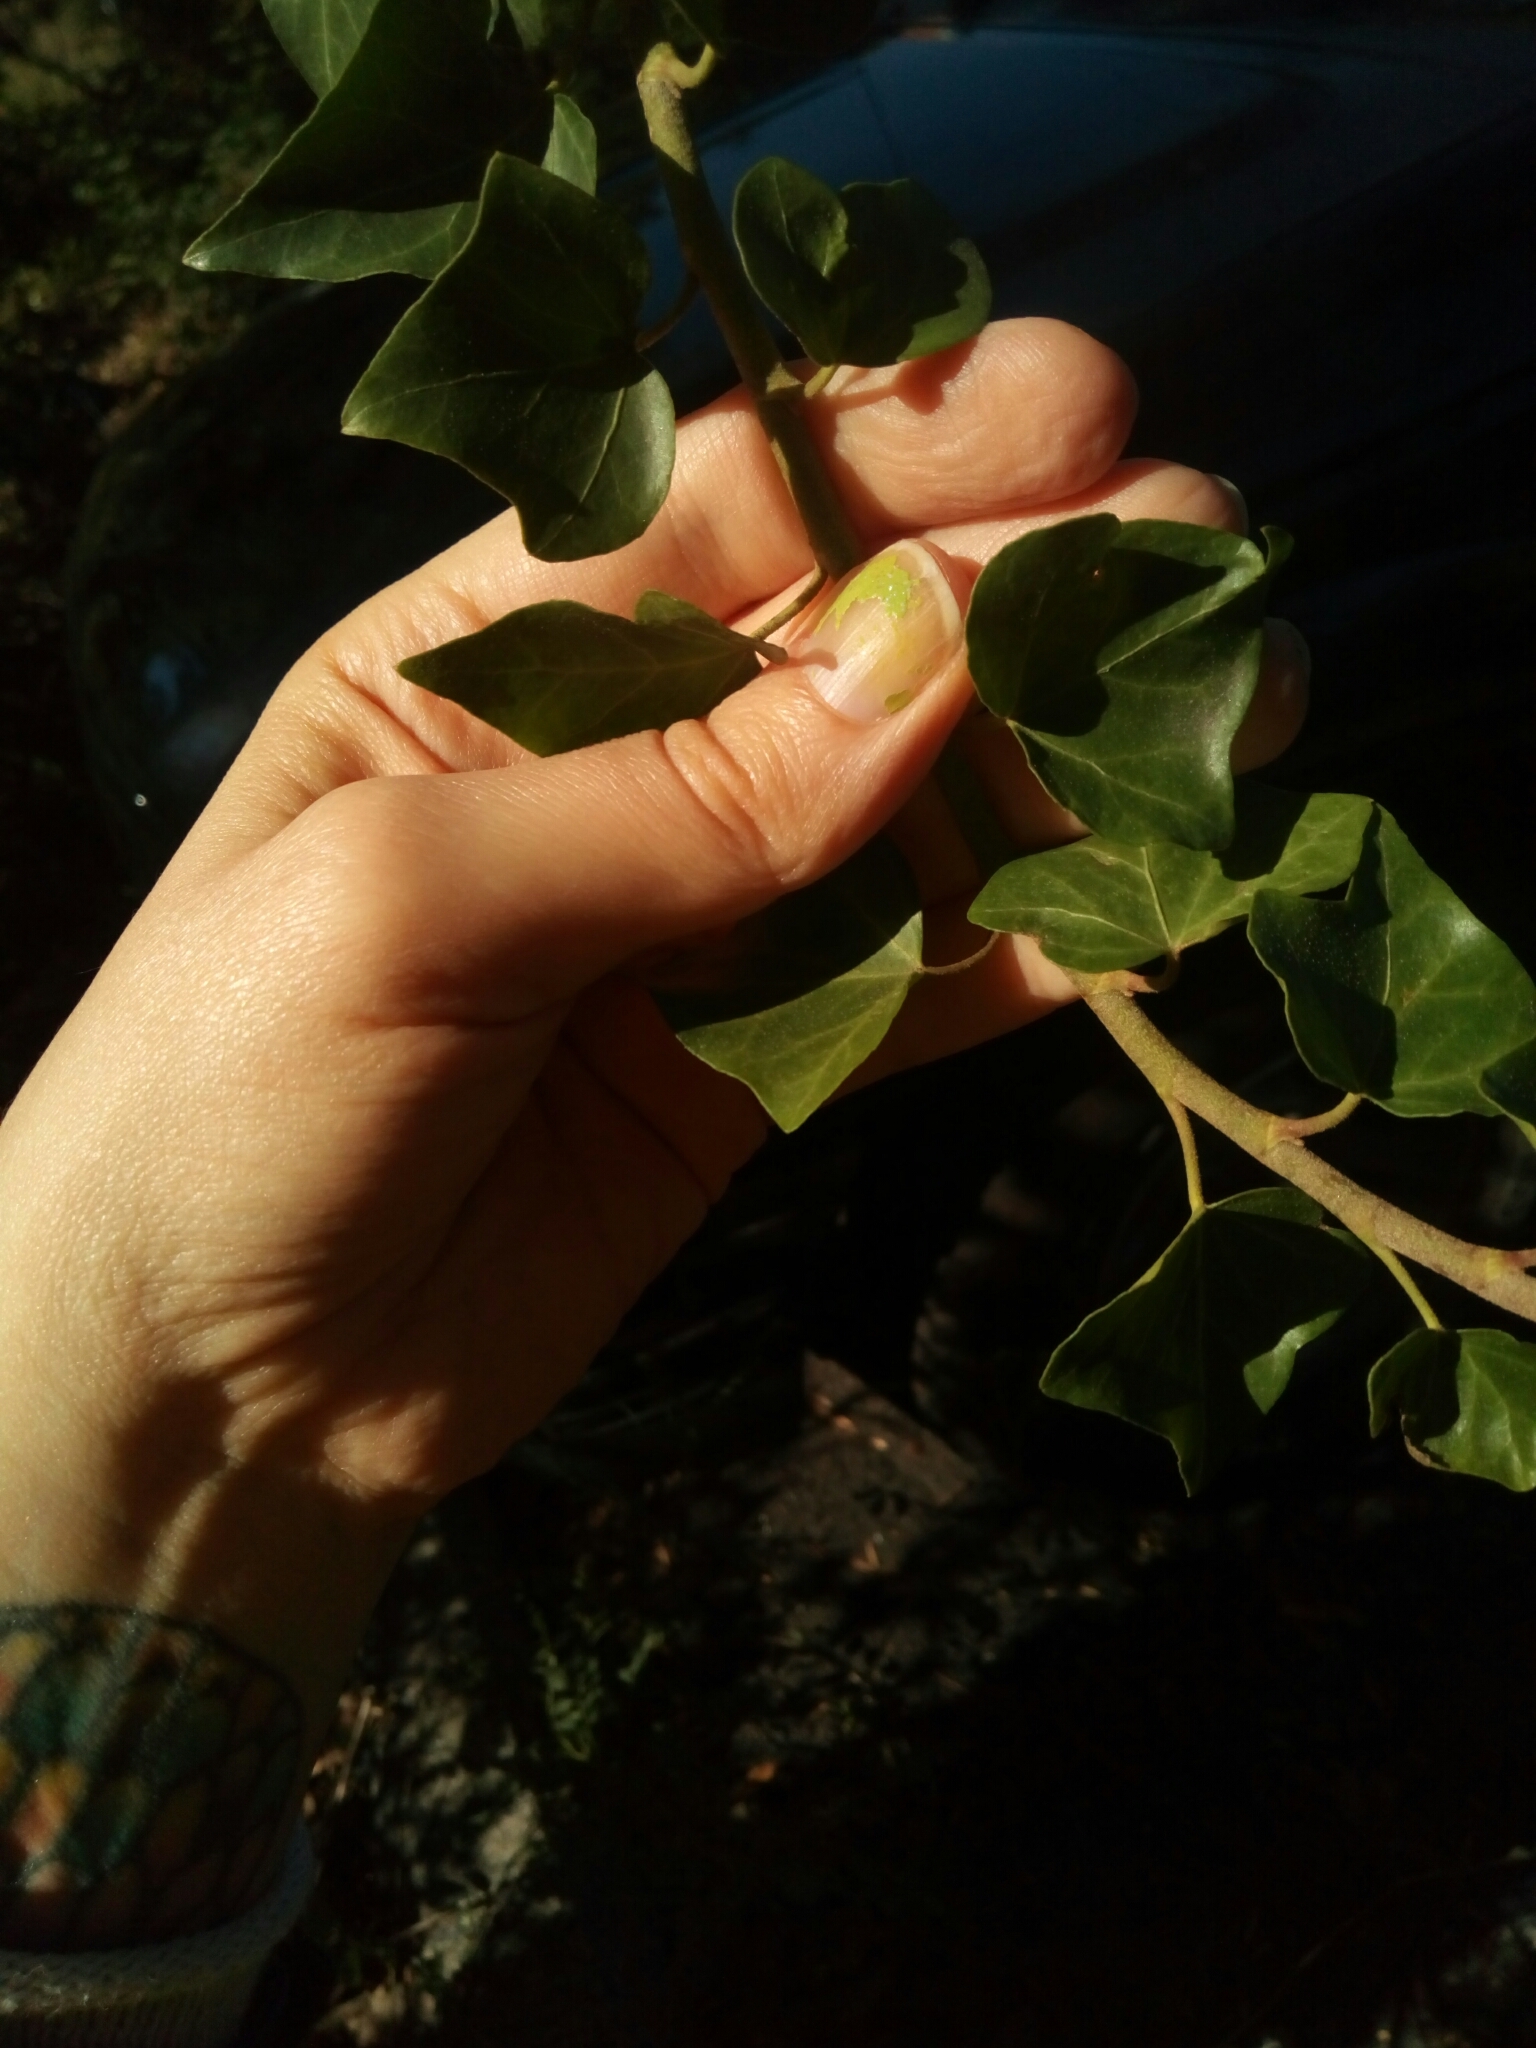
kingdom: Plantae
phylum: Tracheophyta
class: Magnoliopsida
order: Apiales
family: Araliaceae
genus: Hedera
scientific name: Hedera helix
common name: Ivy
